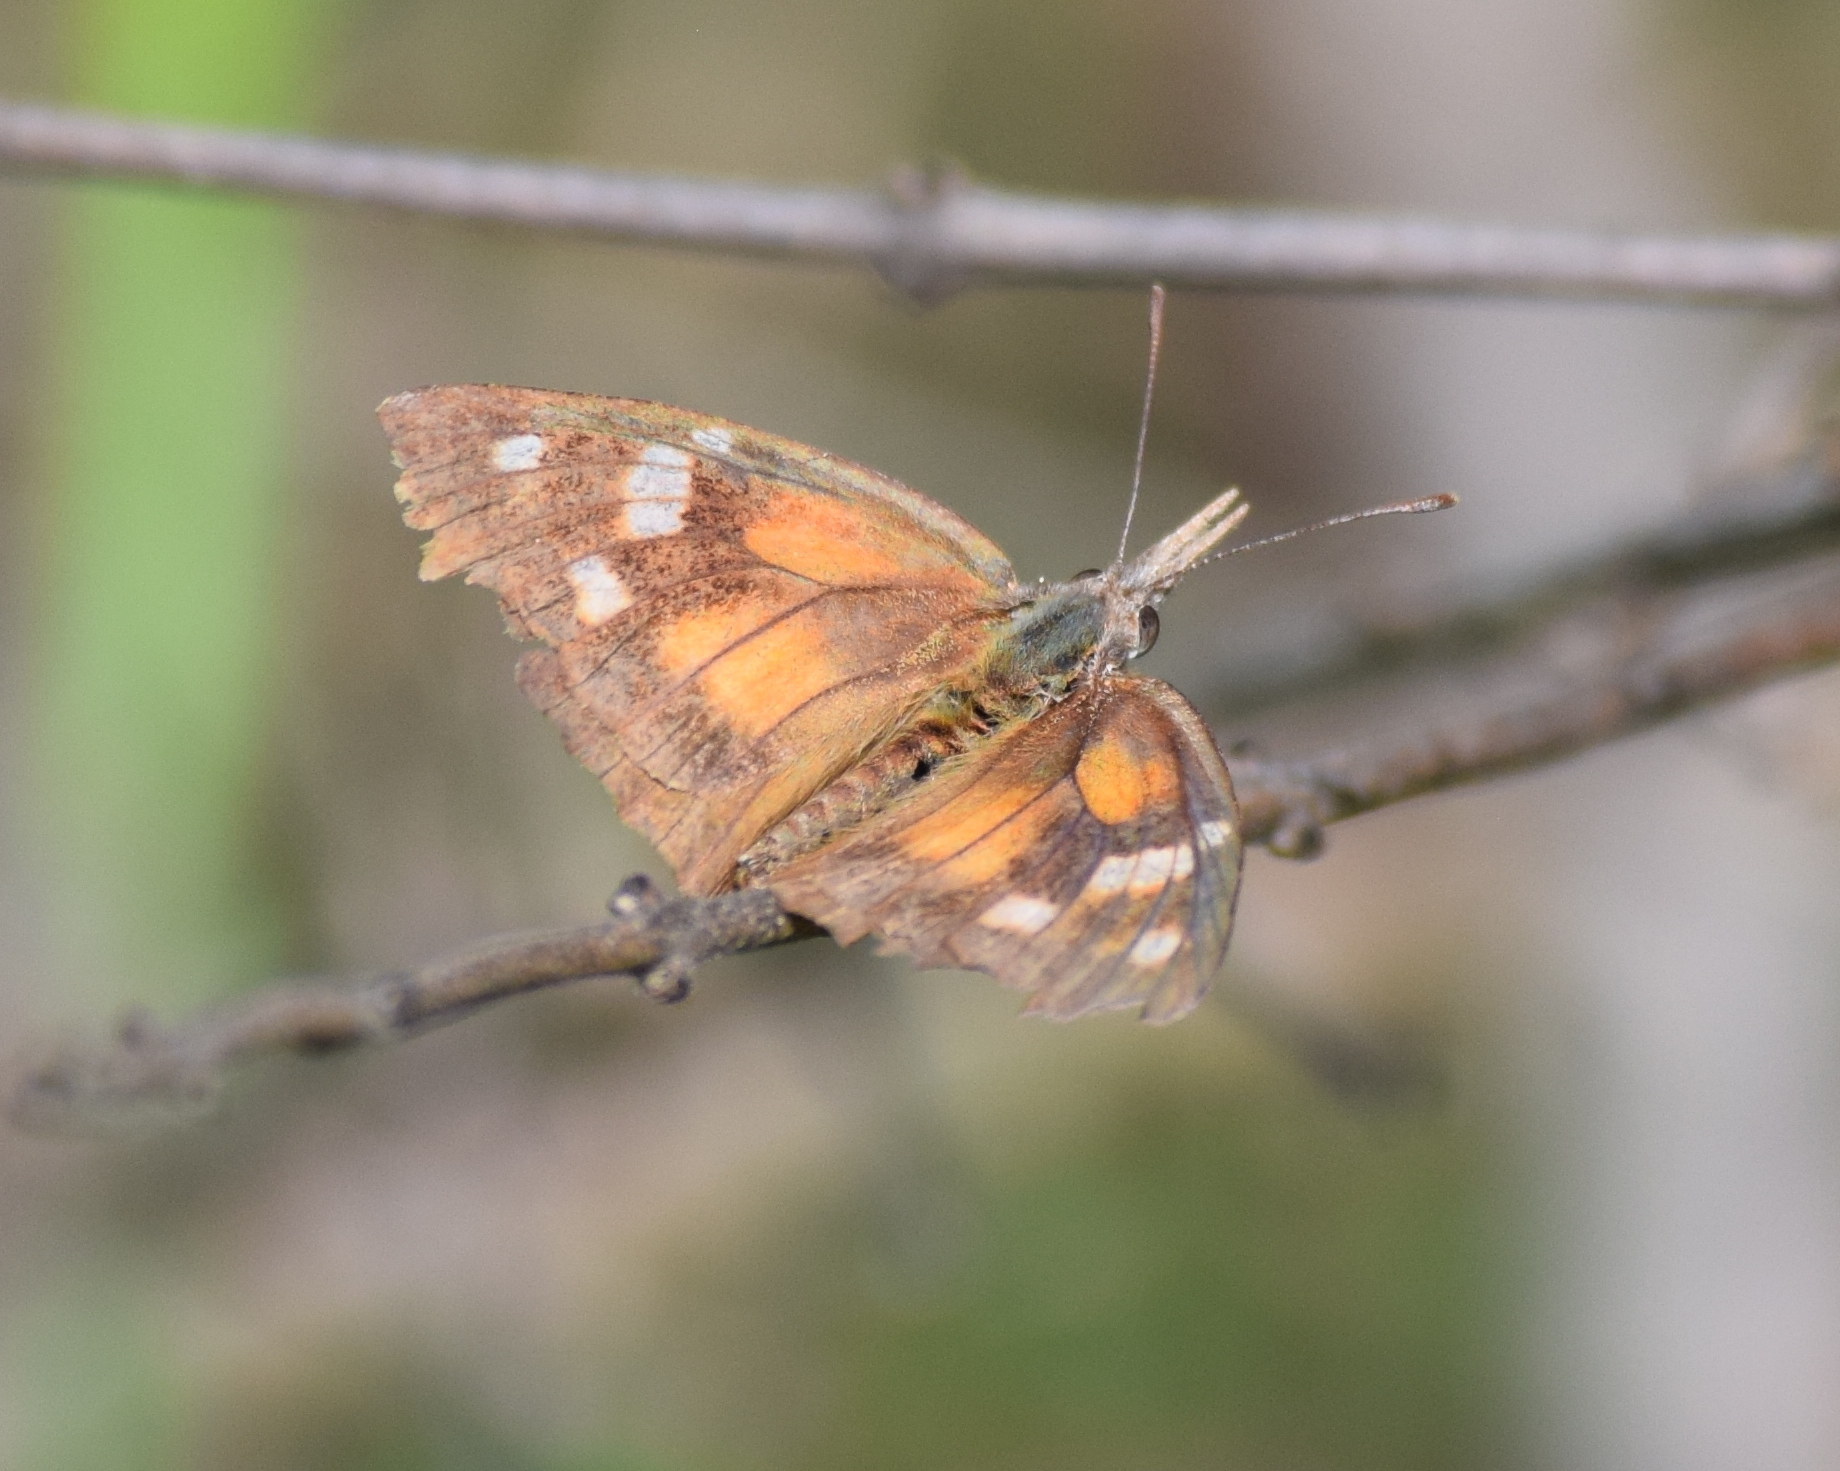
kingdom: Animalia
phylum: Arthropoda
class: Insecta
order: Lepidoptera
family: Nymphalidae
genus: Libytheana
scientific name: Libytheana carinenta
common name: American snout
